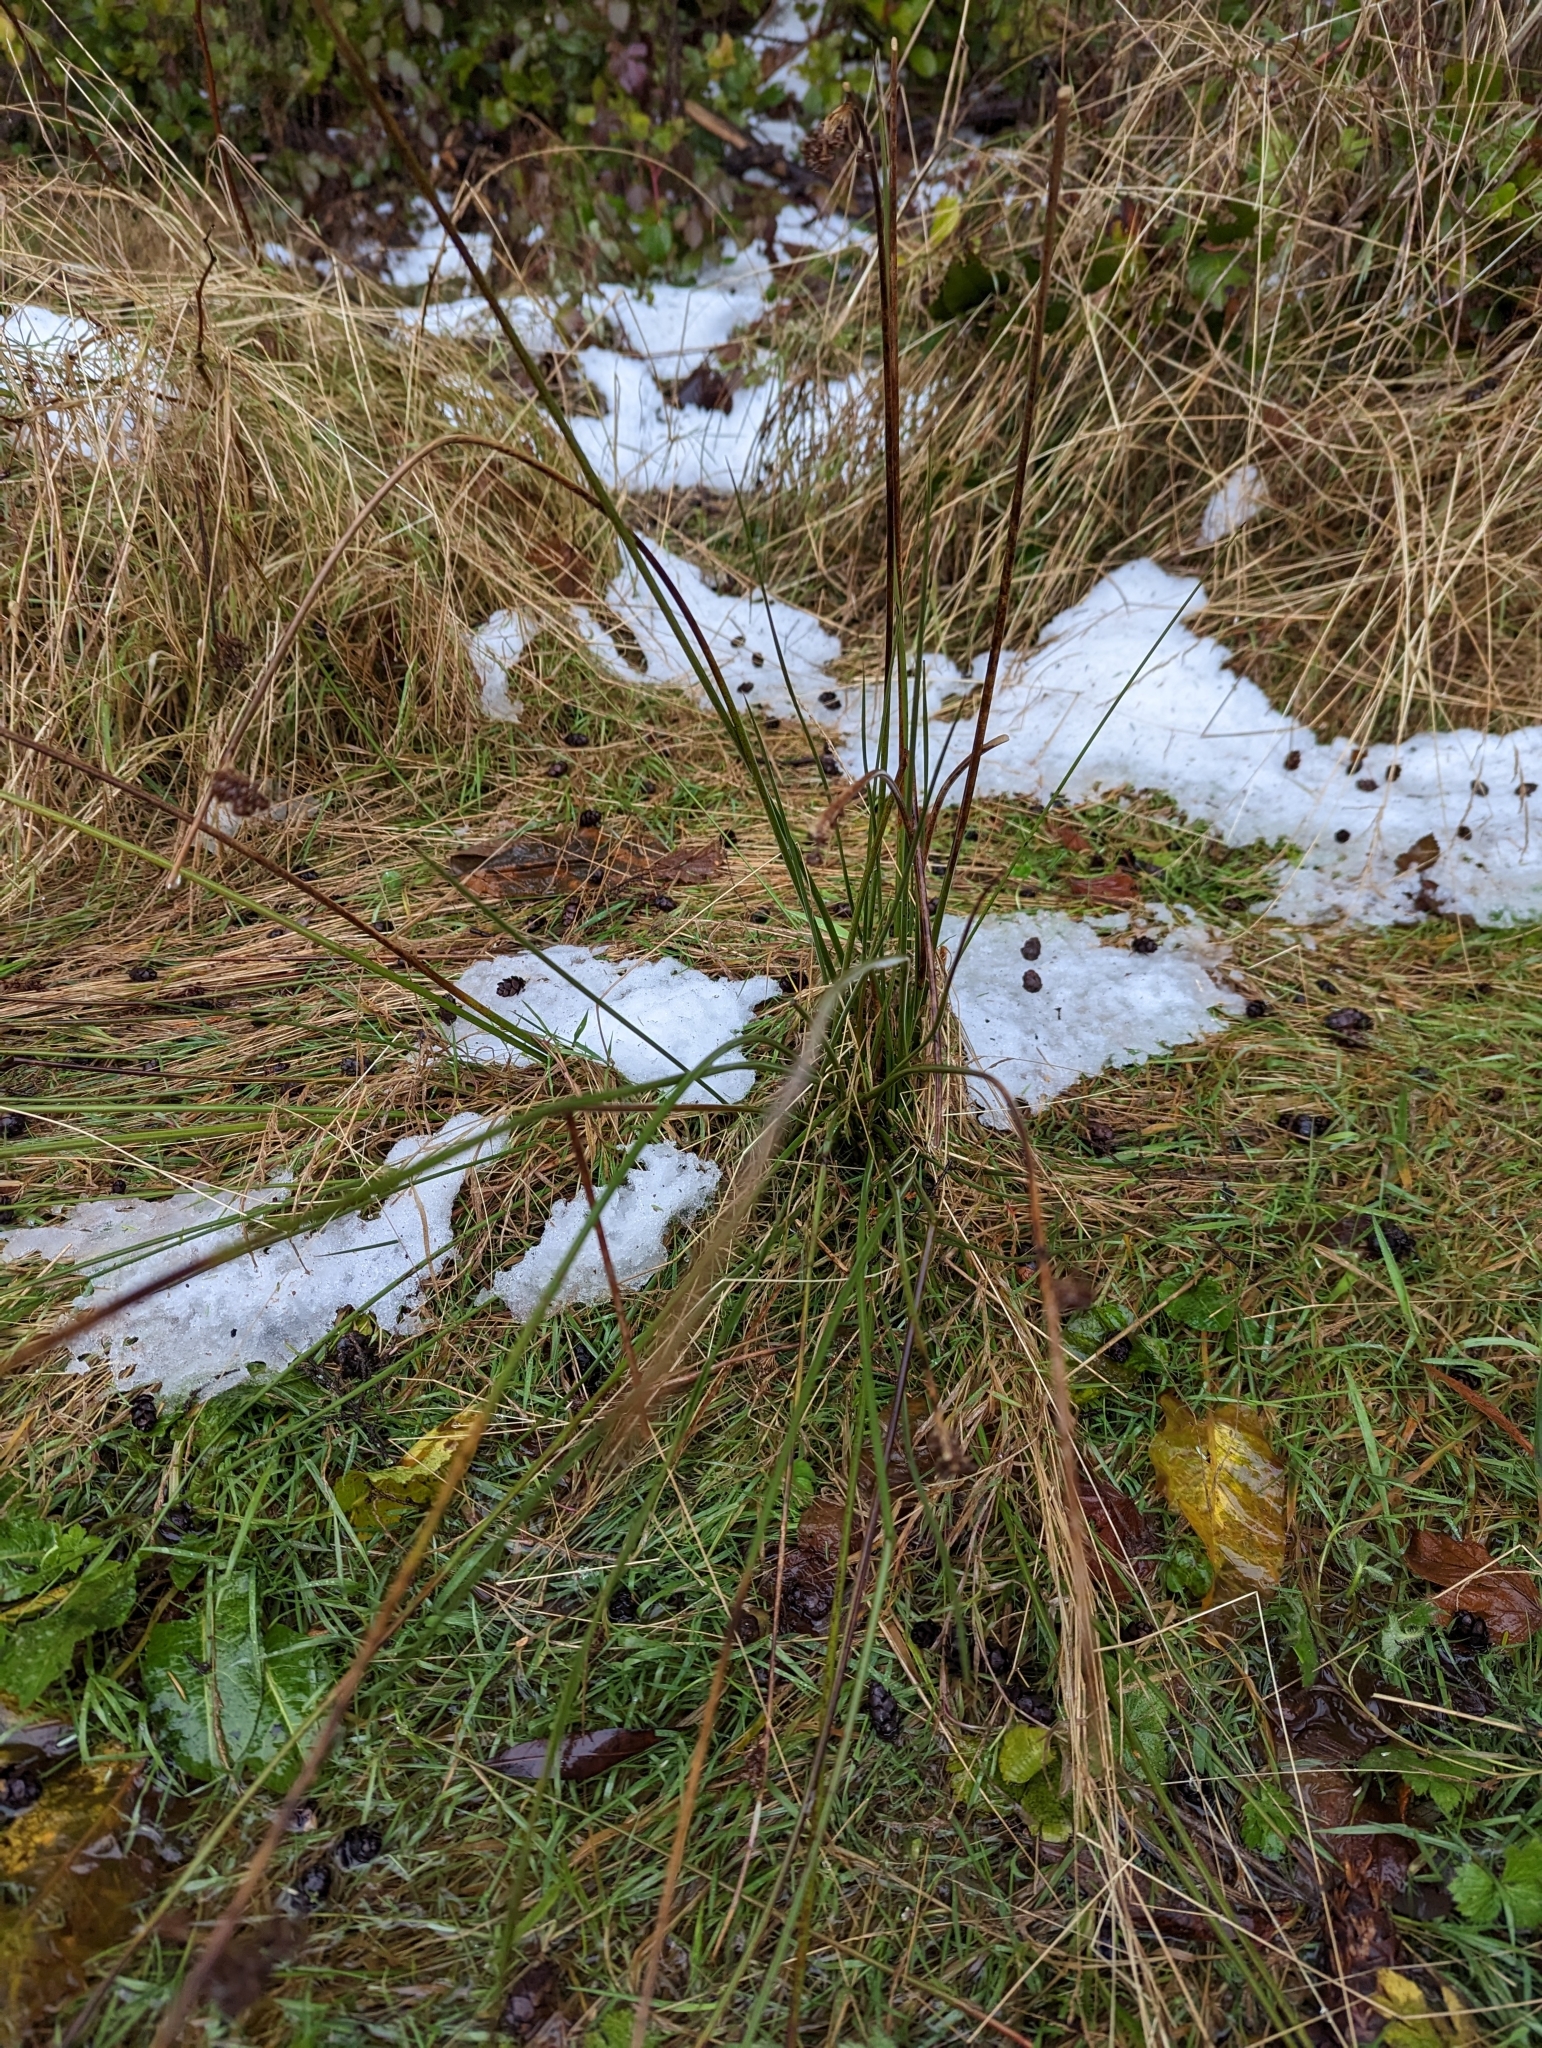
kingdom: Plantae
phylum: Tracheophyta
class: Liliopsida
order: Poales
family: Juncaceae
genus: Juncus
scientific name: Juncus effusus
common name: Soft rush
